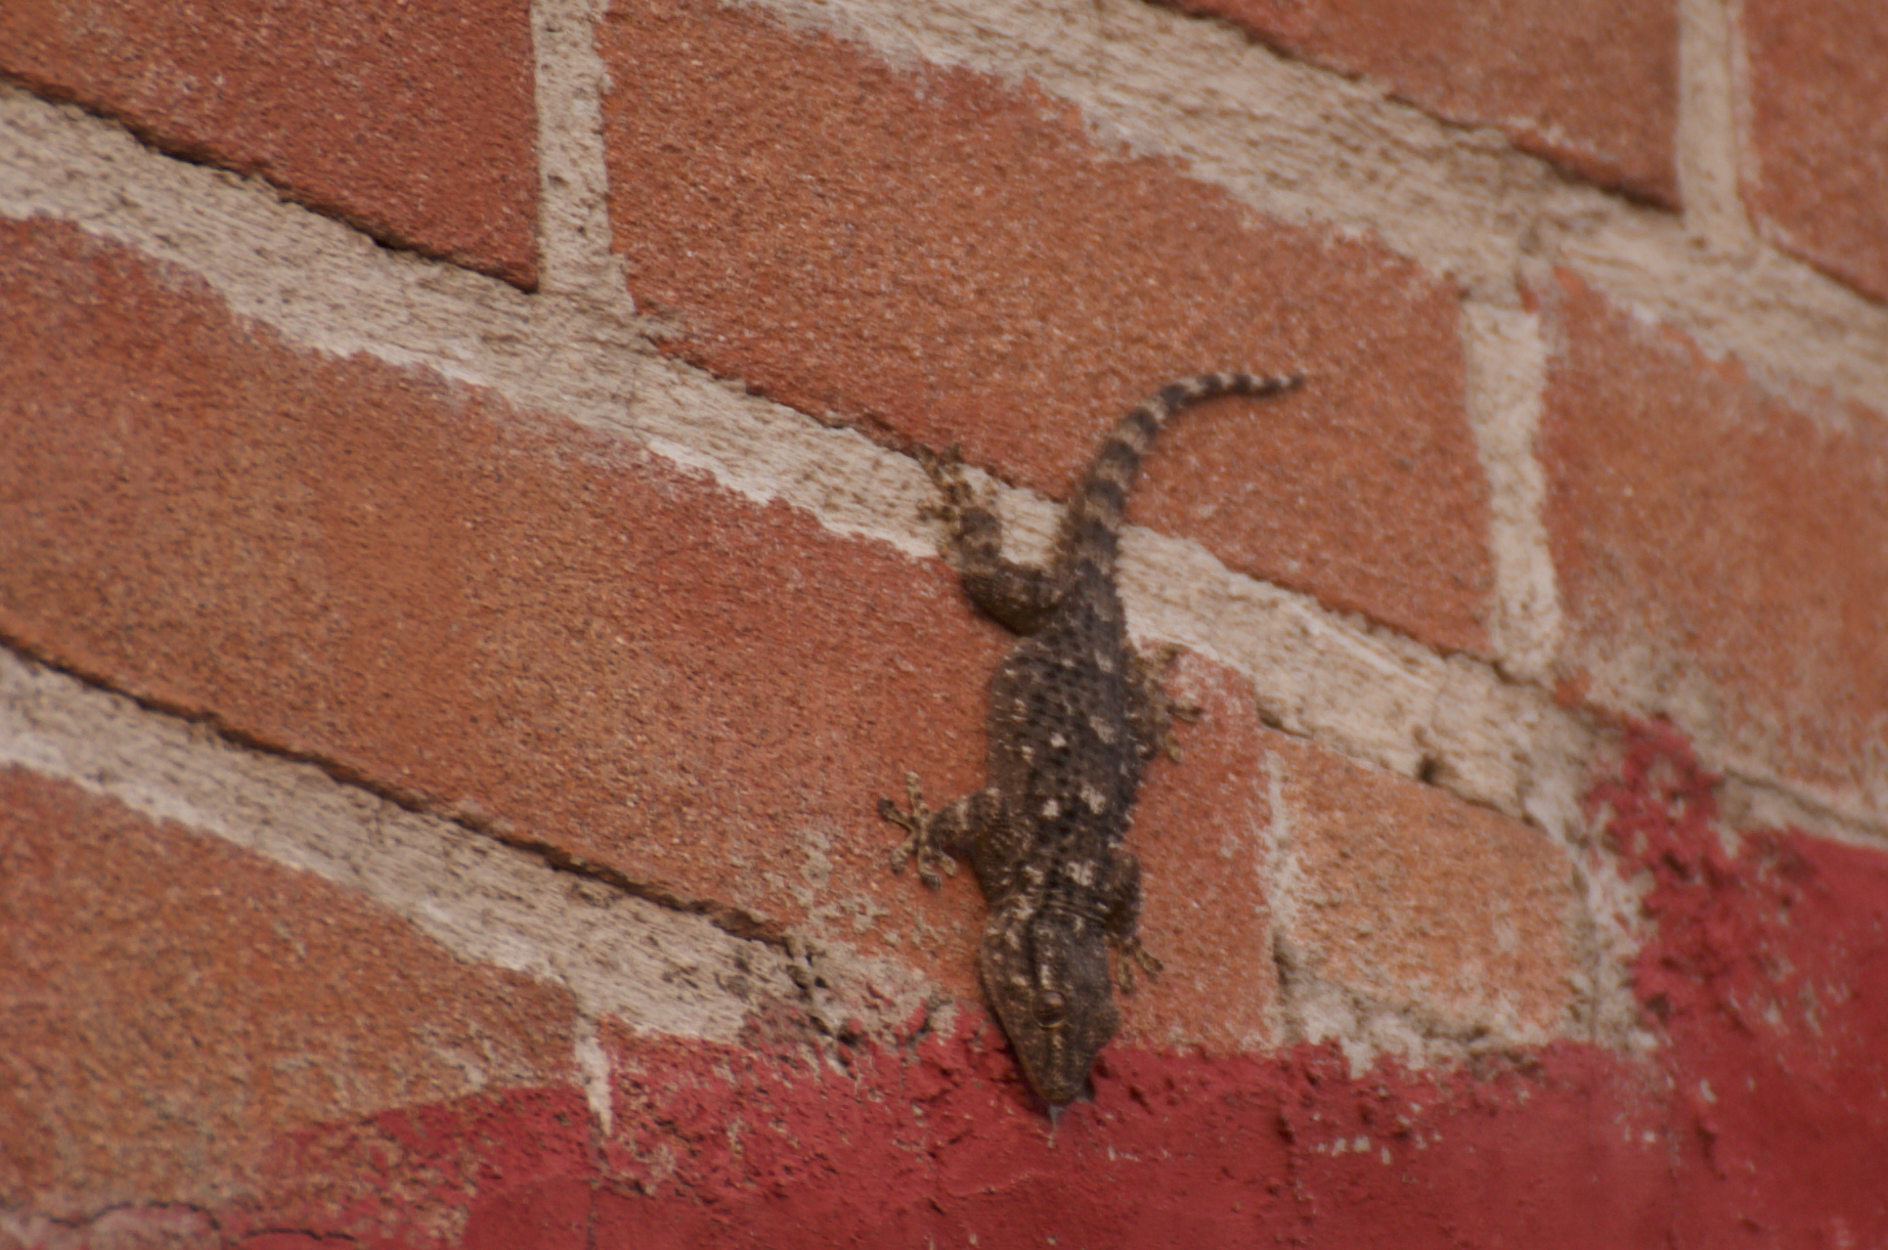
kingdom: Animalia
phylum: Chordata
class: Squamata
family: Phyllodactylidae
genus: Tarentola
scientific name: Tarentola mauritanica
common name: Moorish gecko
